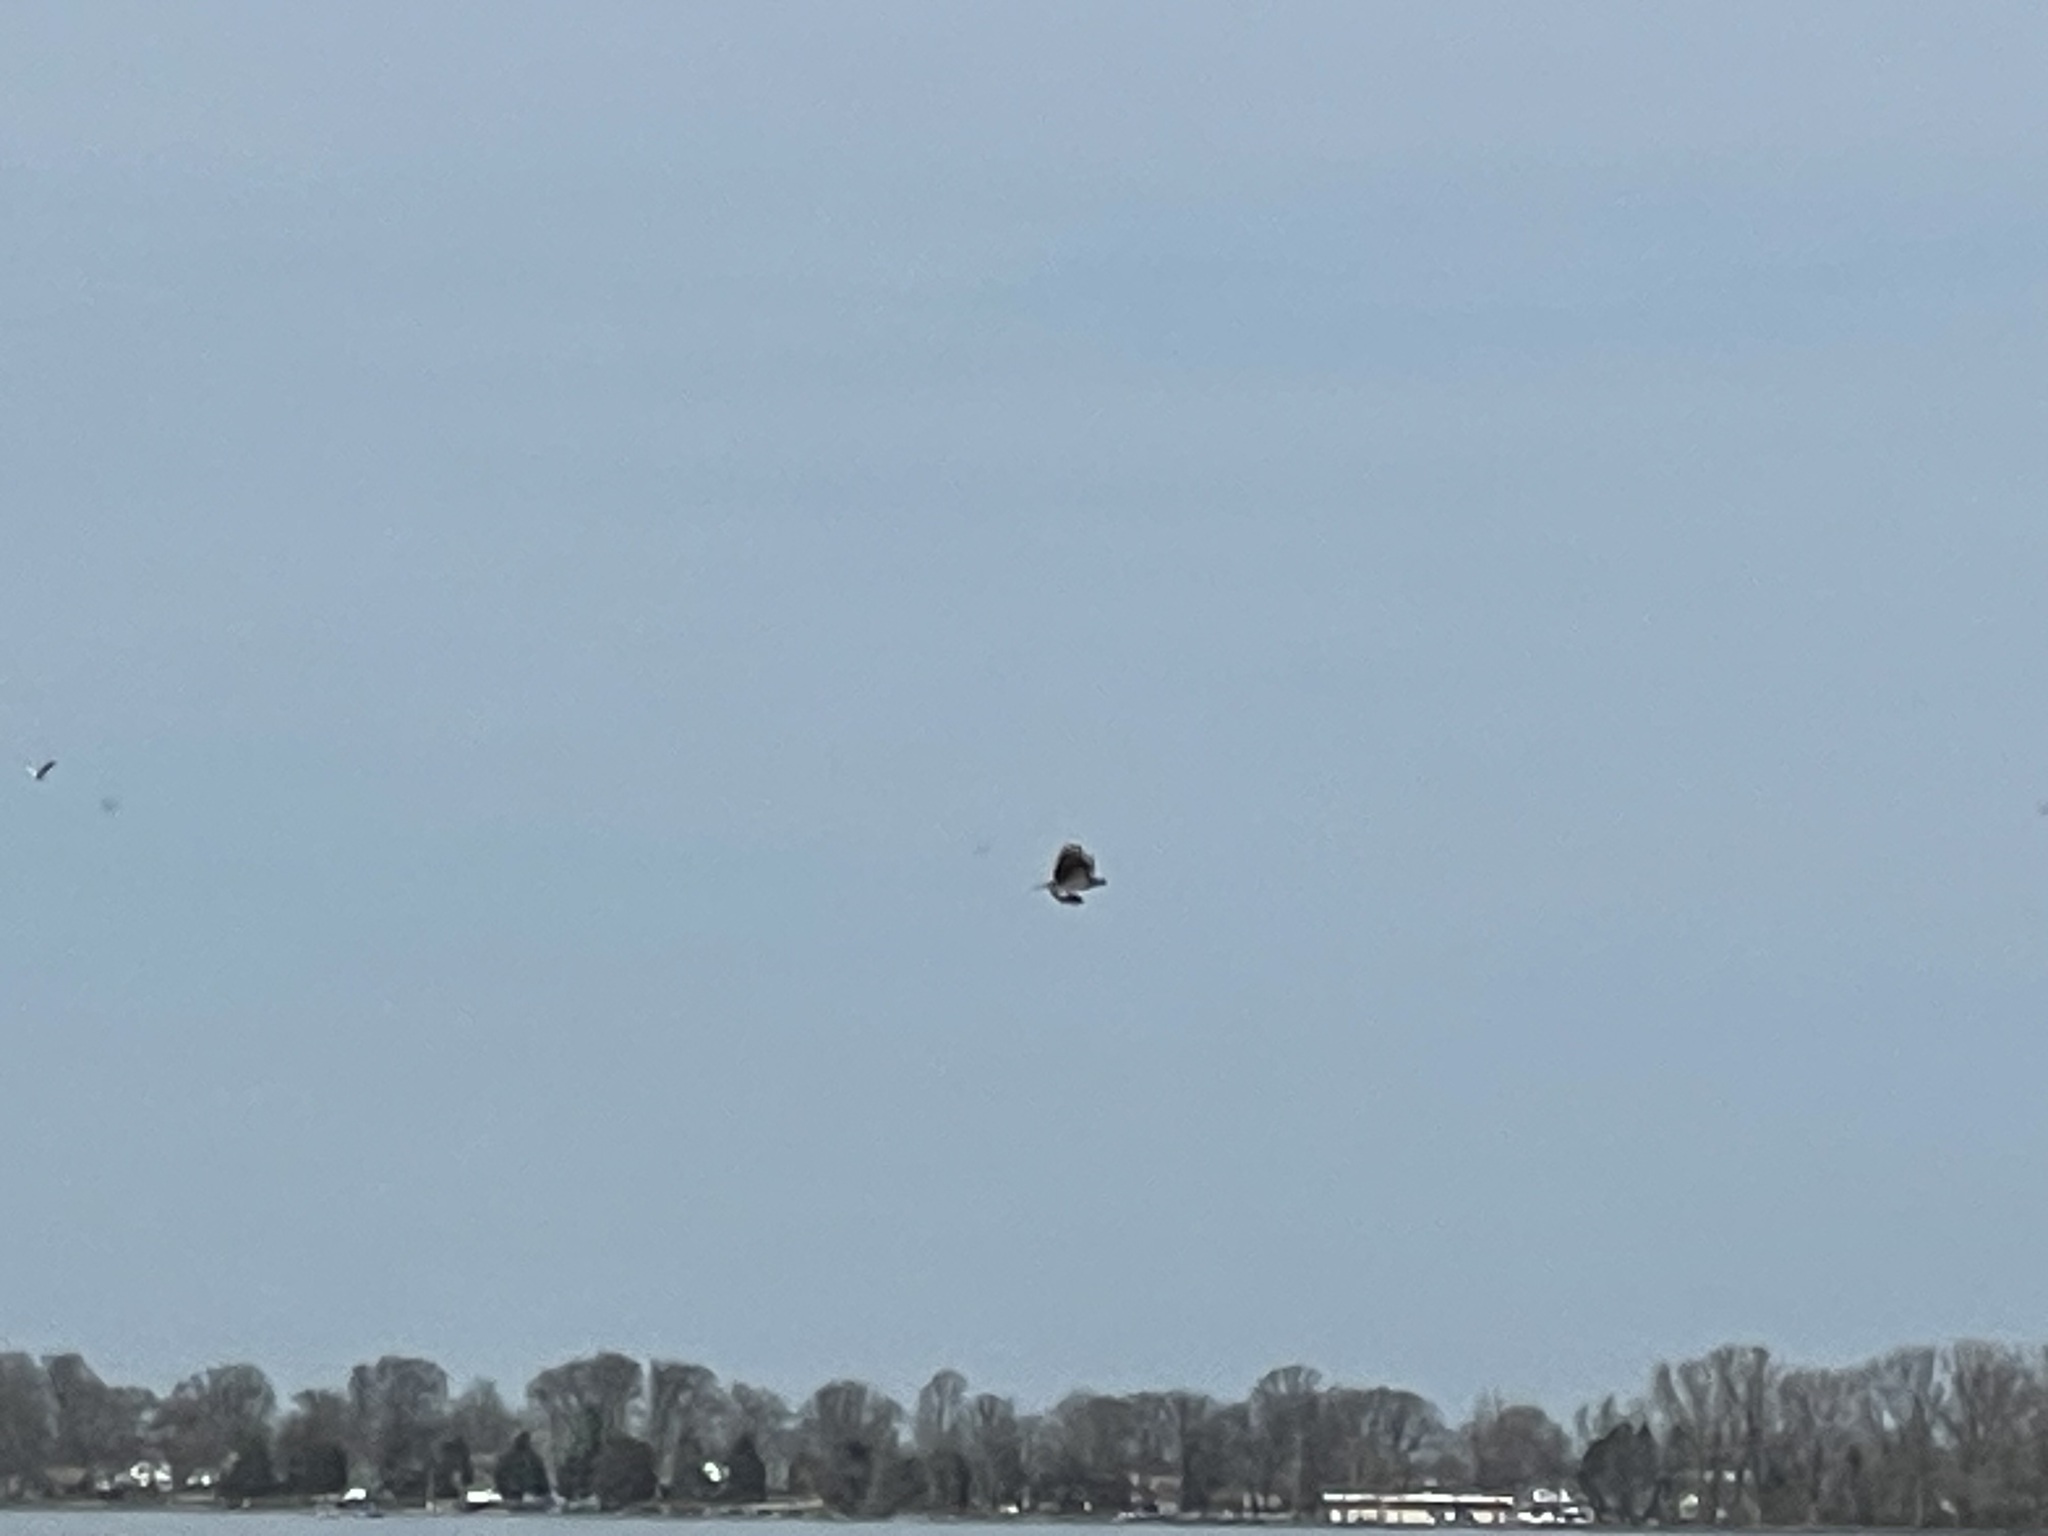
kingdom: Animalia
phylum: Chordata
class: Aves
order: Accipitriformes
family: Pandionidae
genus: Pandion
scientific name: Pandion haliaetus
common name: Osprey
